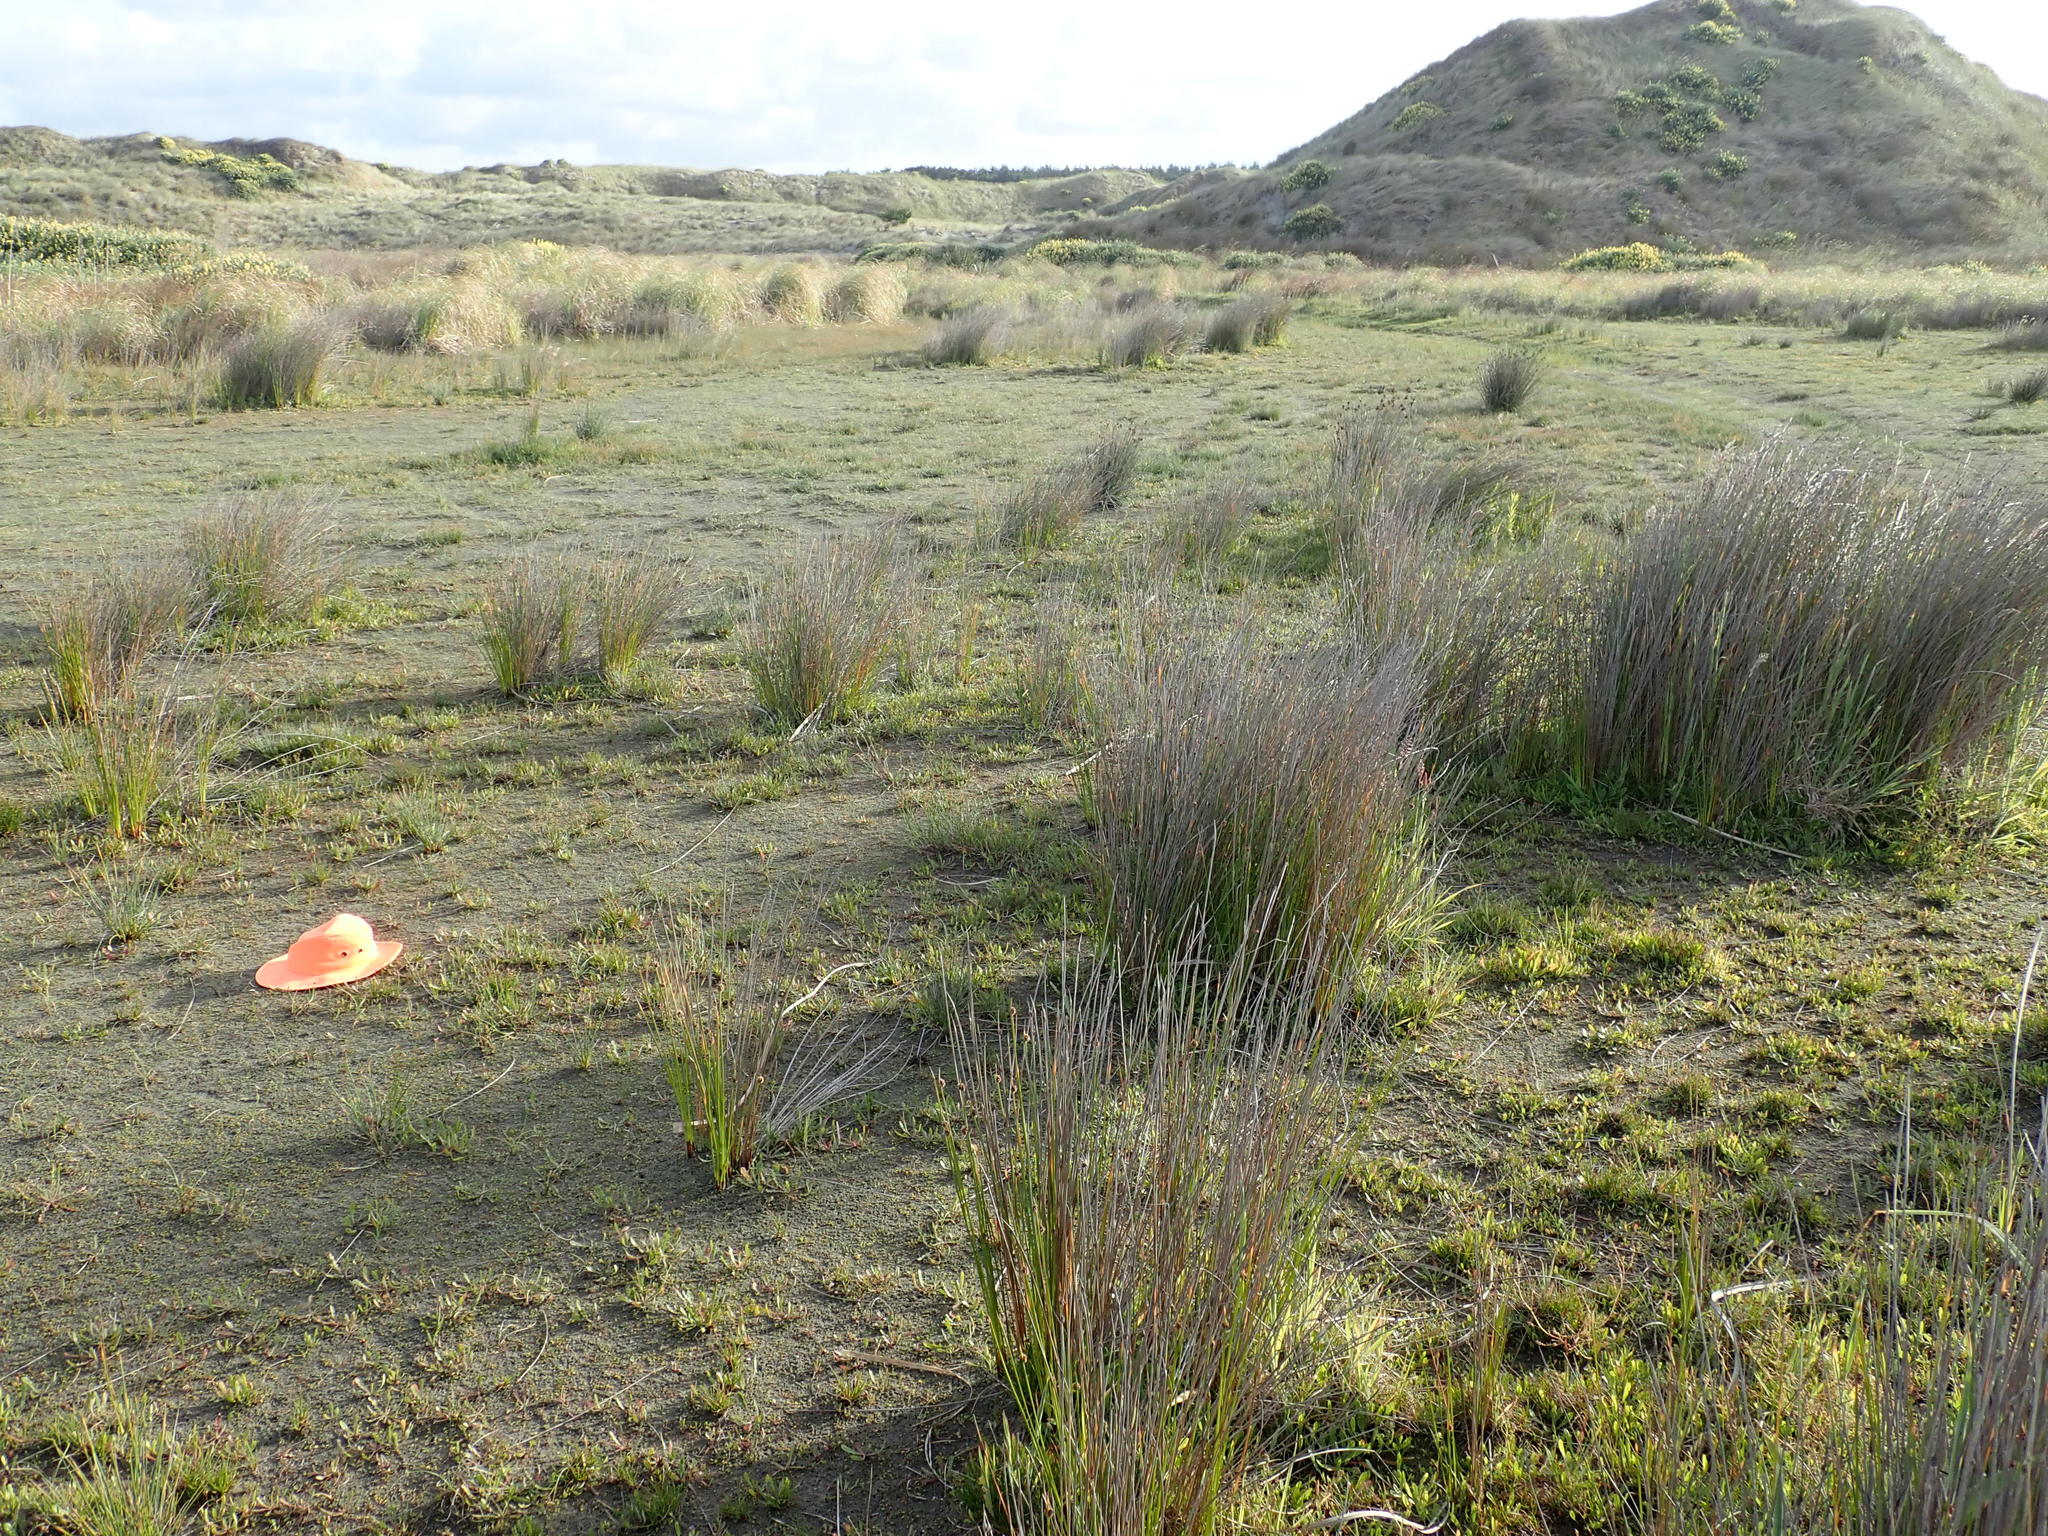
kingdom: Plantae
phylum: Tracheophyta
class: Magnoliopsida
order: Ranunculales
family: Ranunculaceae
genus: Ranunculus
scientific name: Ranunculus acaulis
